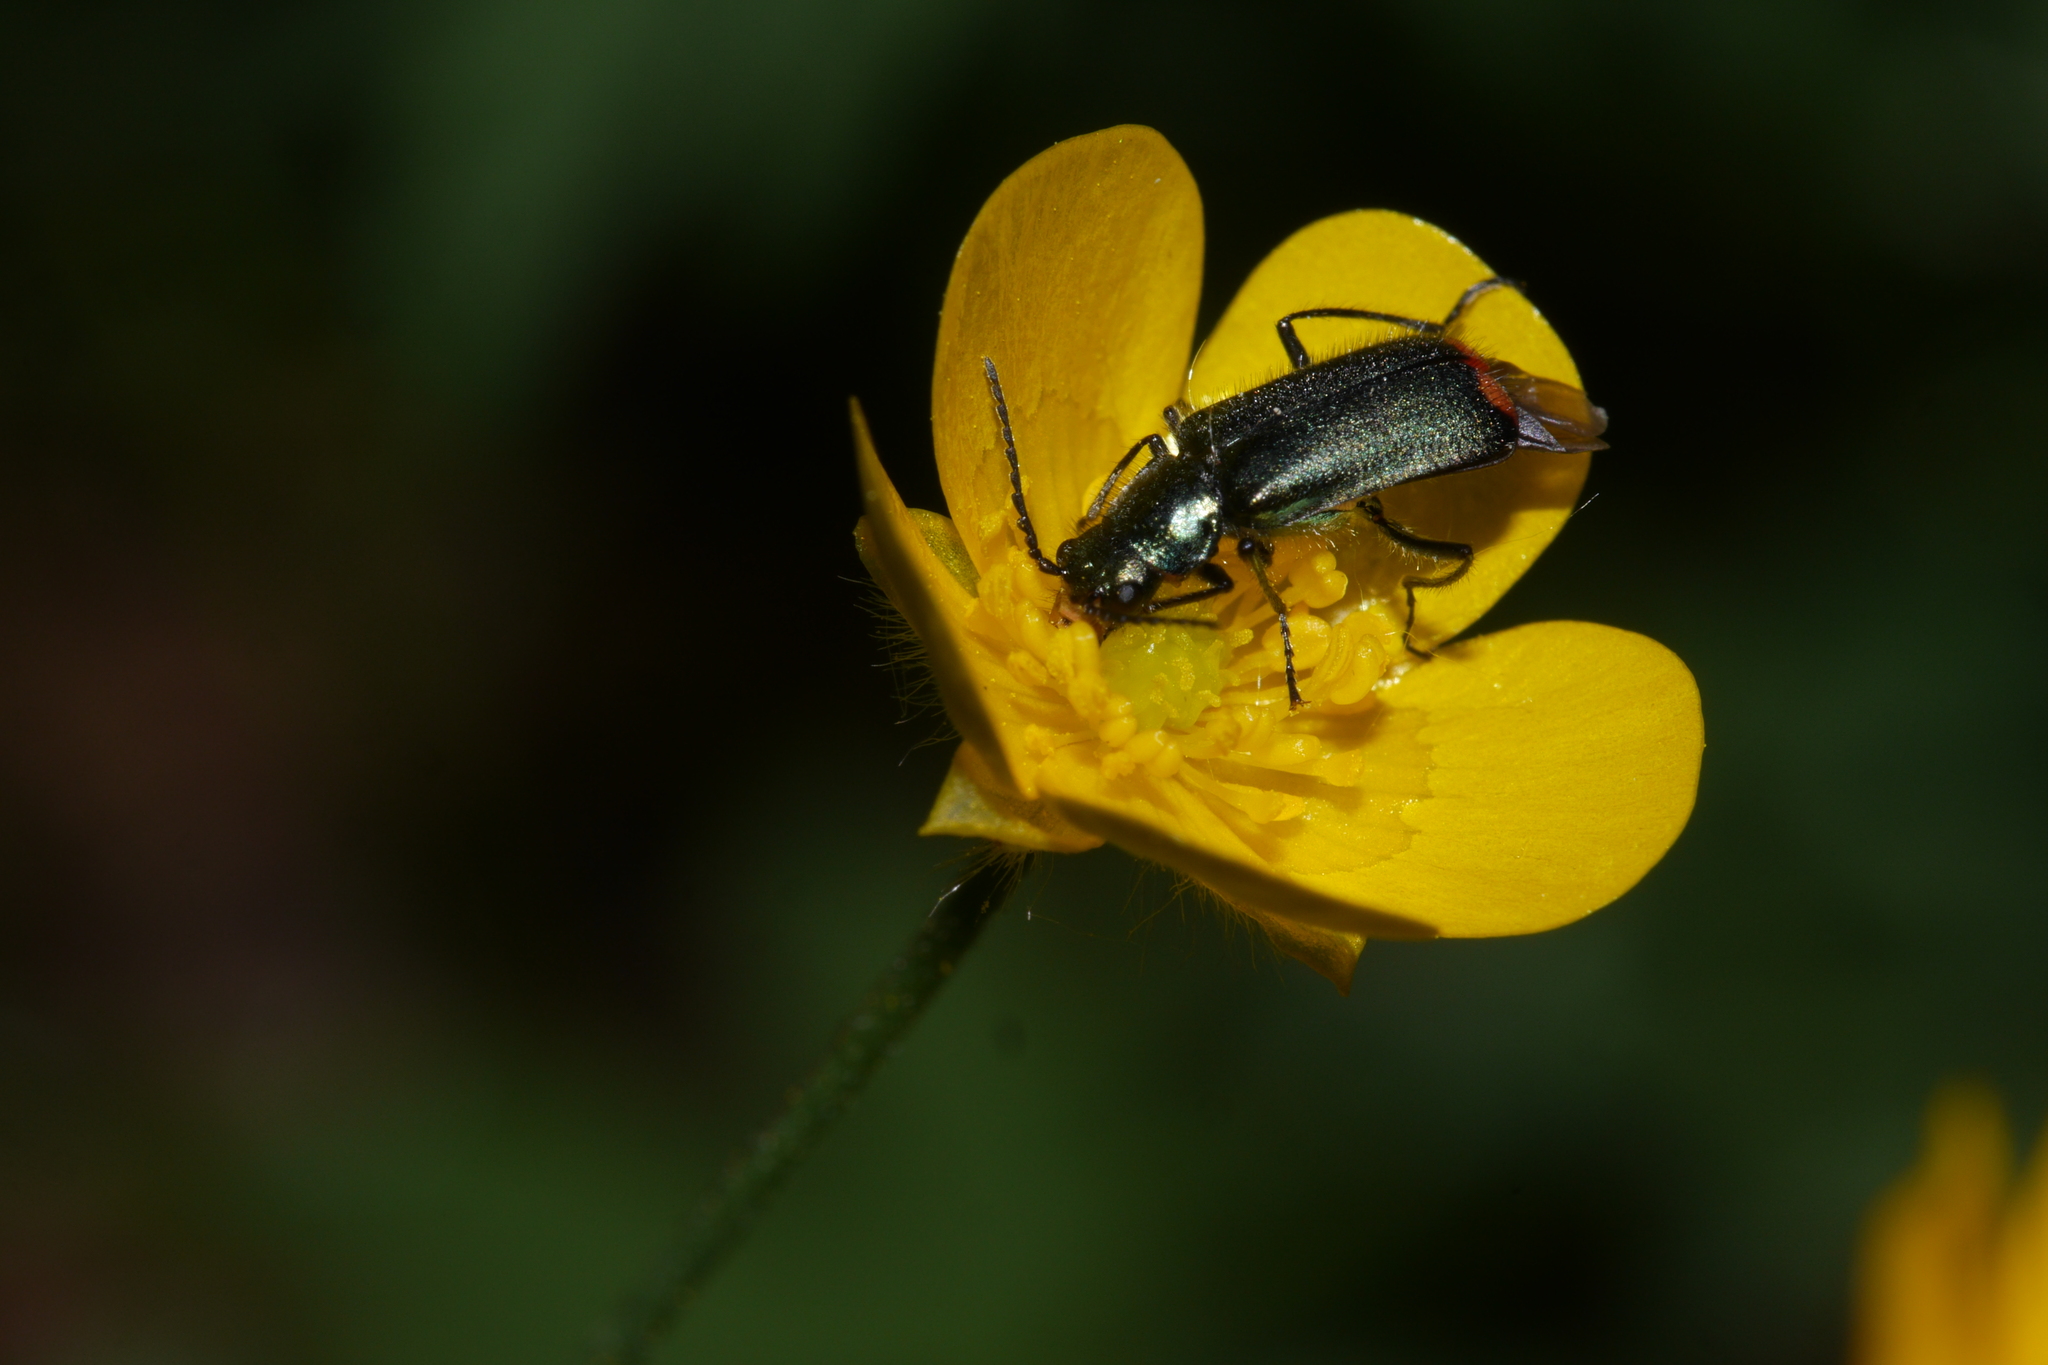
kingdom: Animalia
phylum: Arthropoda
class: Insecta
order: Coleoptera
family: Melyridae
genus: Malachius
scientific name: Malachius bipustulatus
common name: Malachite beetle
